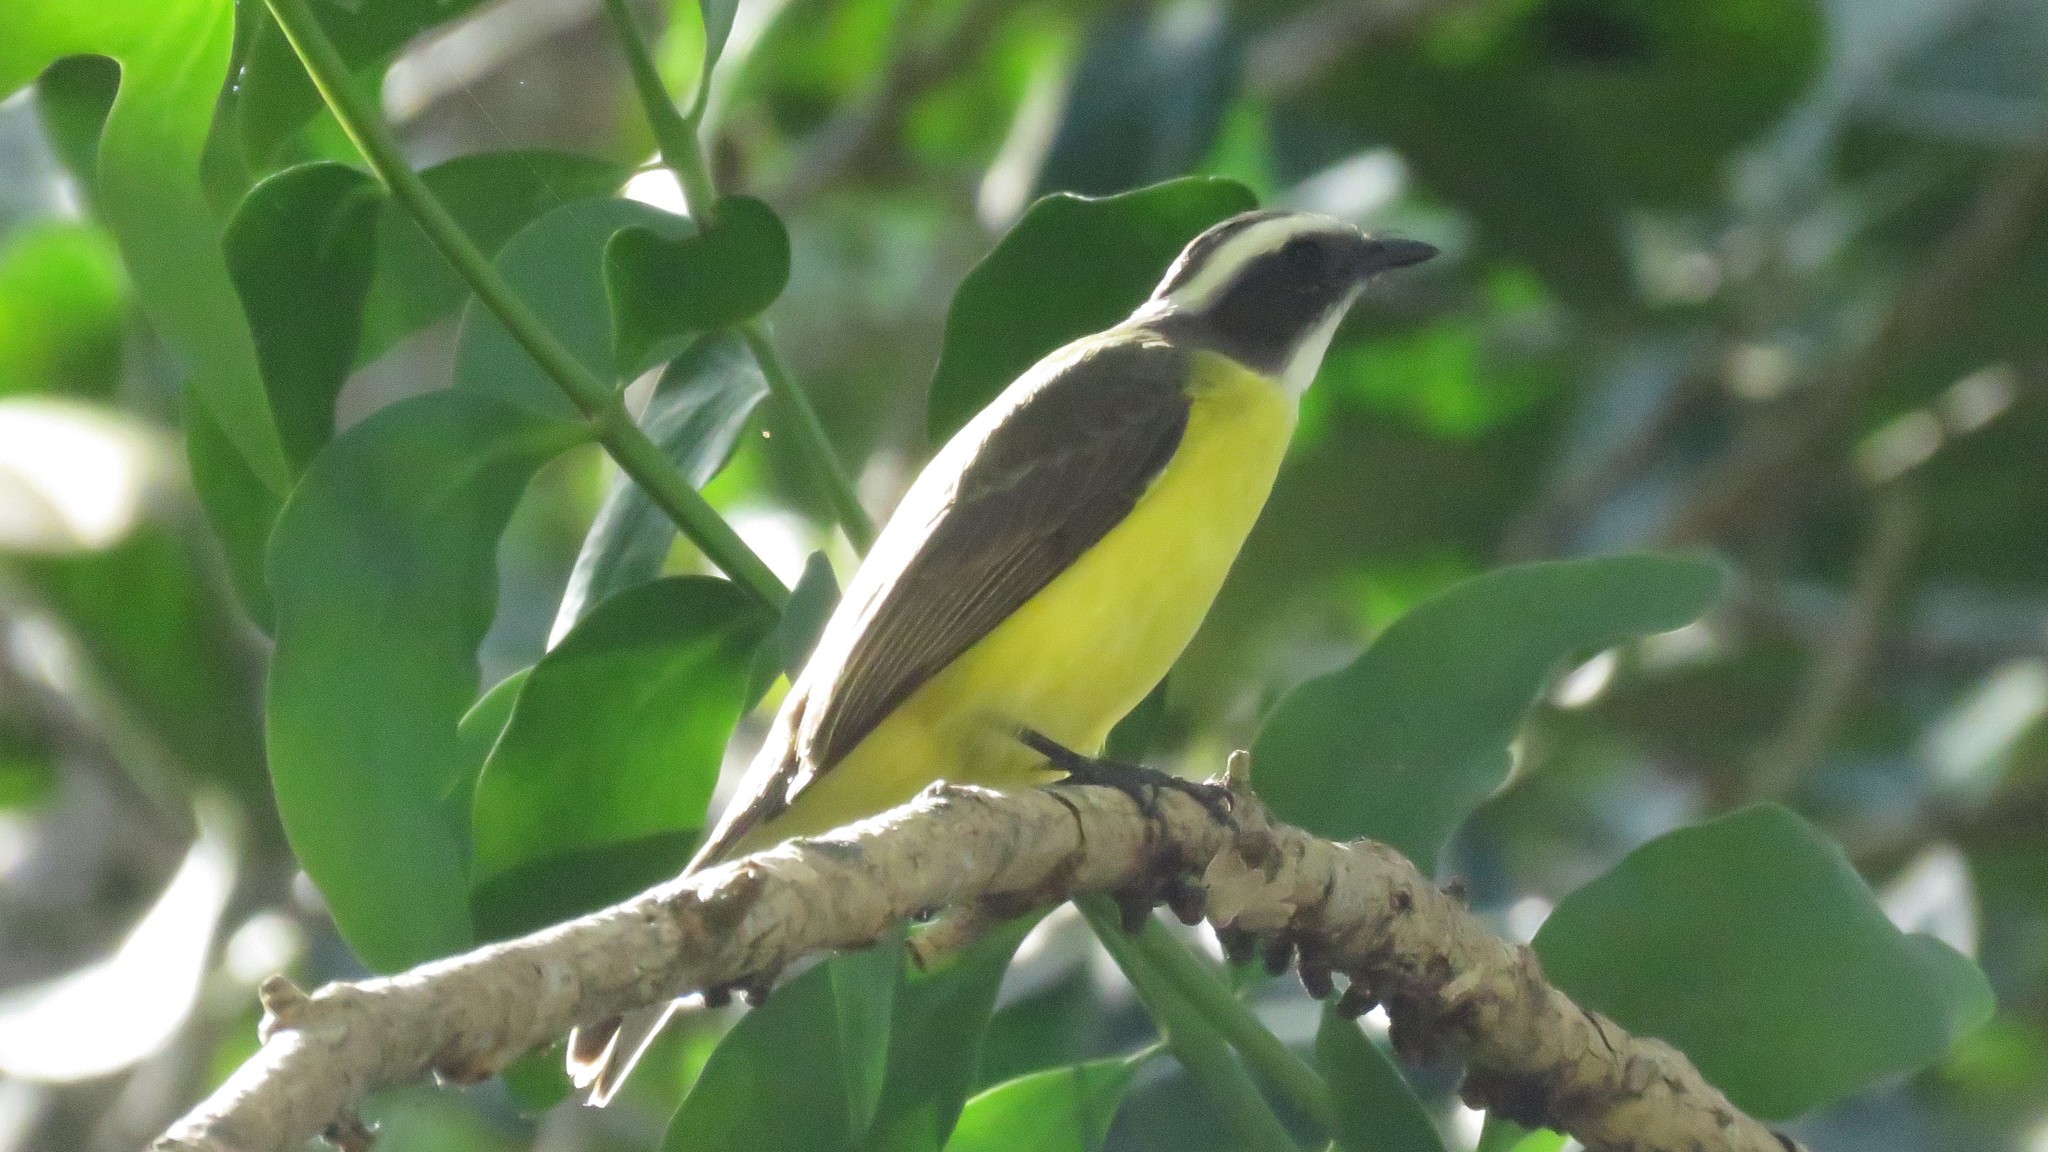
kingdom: Animalia
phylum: Chordata
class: Aves
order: Passeriformes
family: Tyrannidae
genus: Myiozetetes
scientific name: Myiozetetes similis
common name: Social flycatcher
